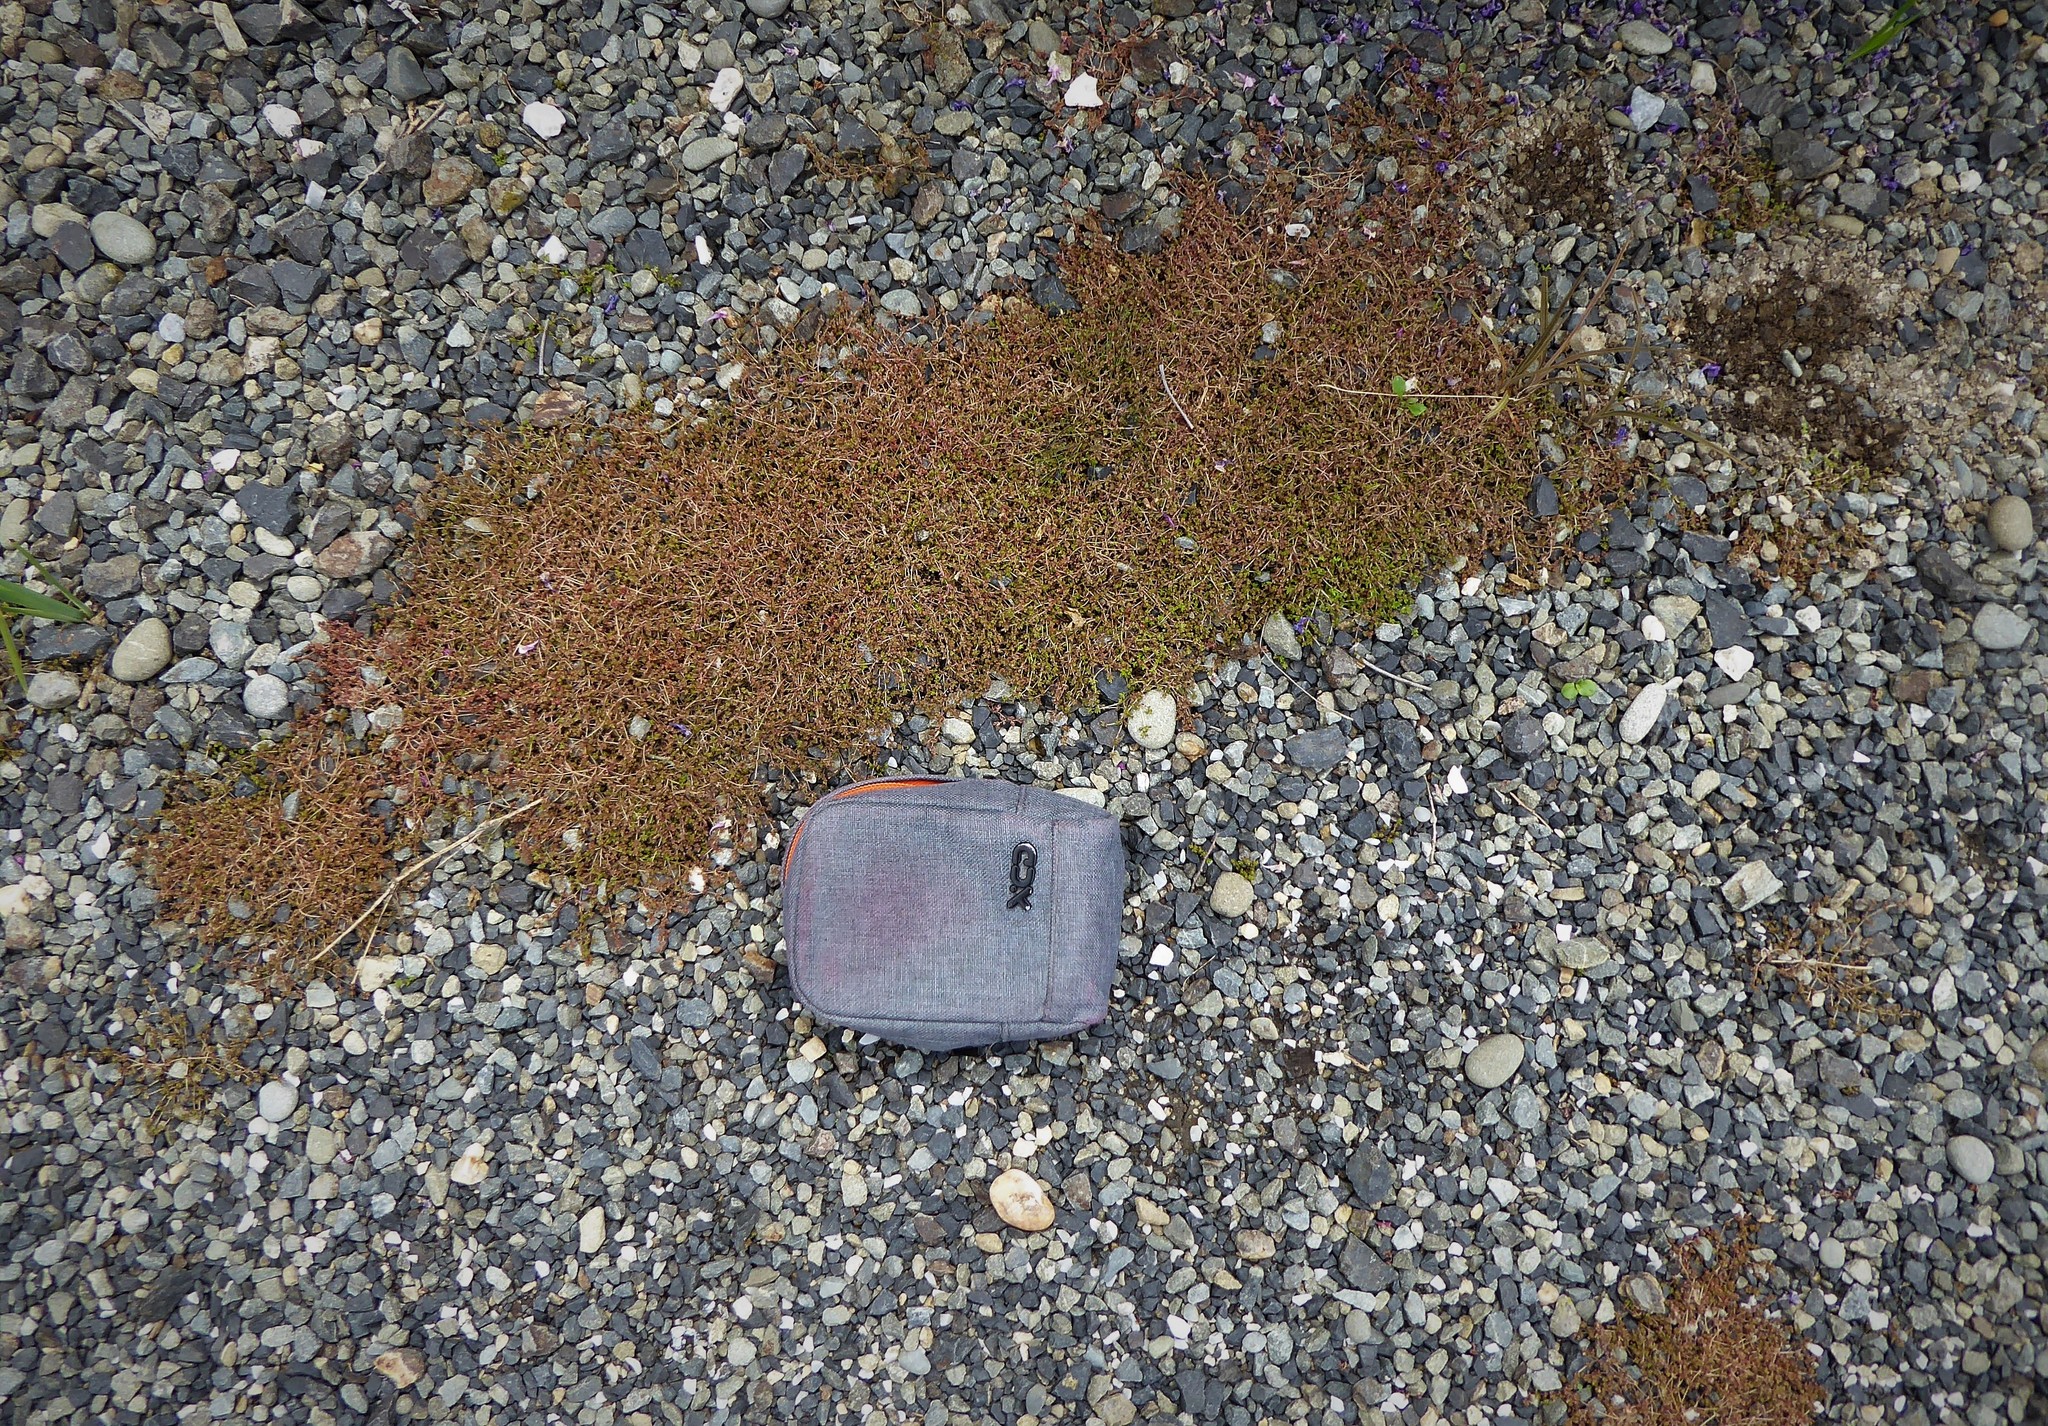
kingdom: Plantae
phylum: Tracheophyta
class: Magnoliopsida
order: Saxifragales
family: Crassulaceae
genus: Crassula
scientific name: Crassula mataikona
